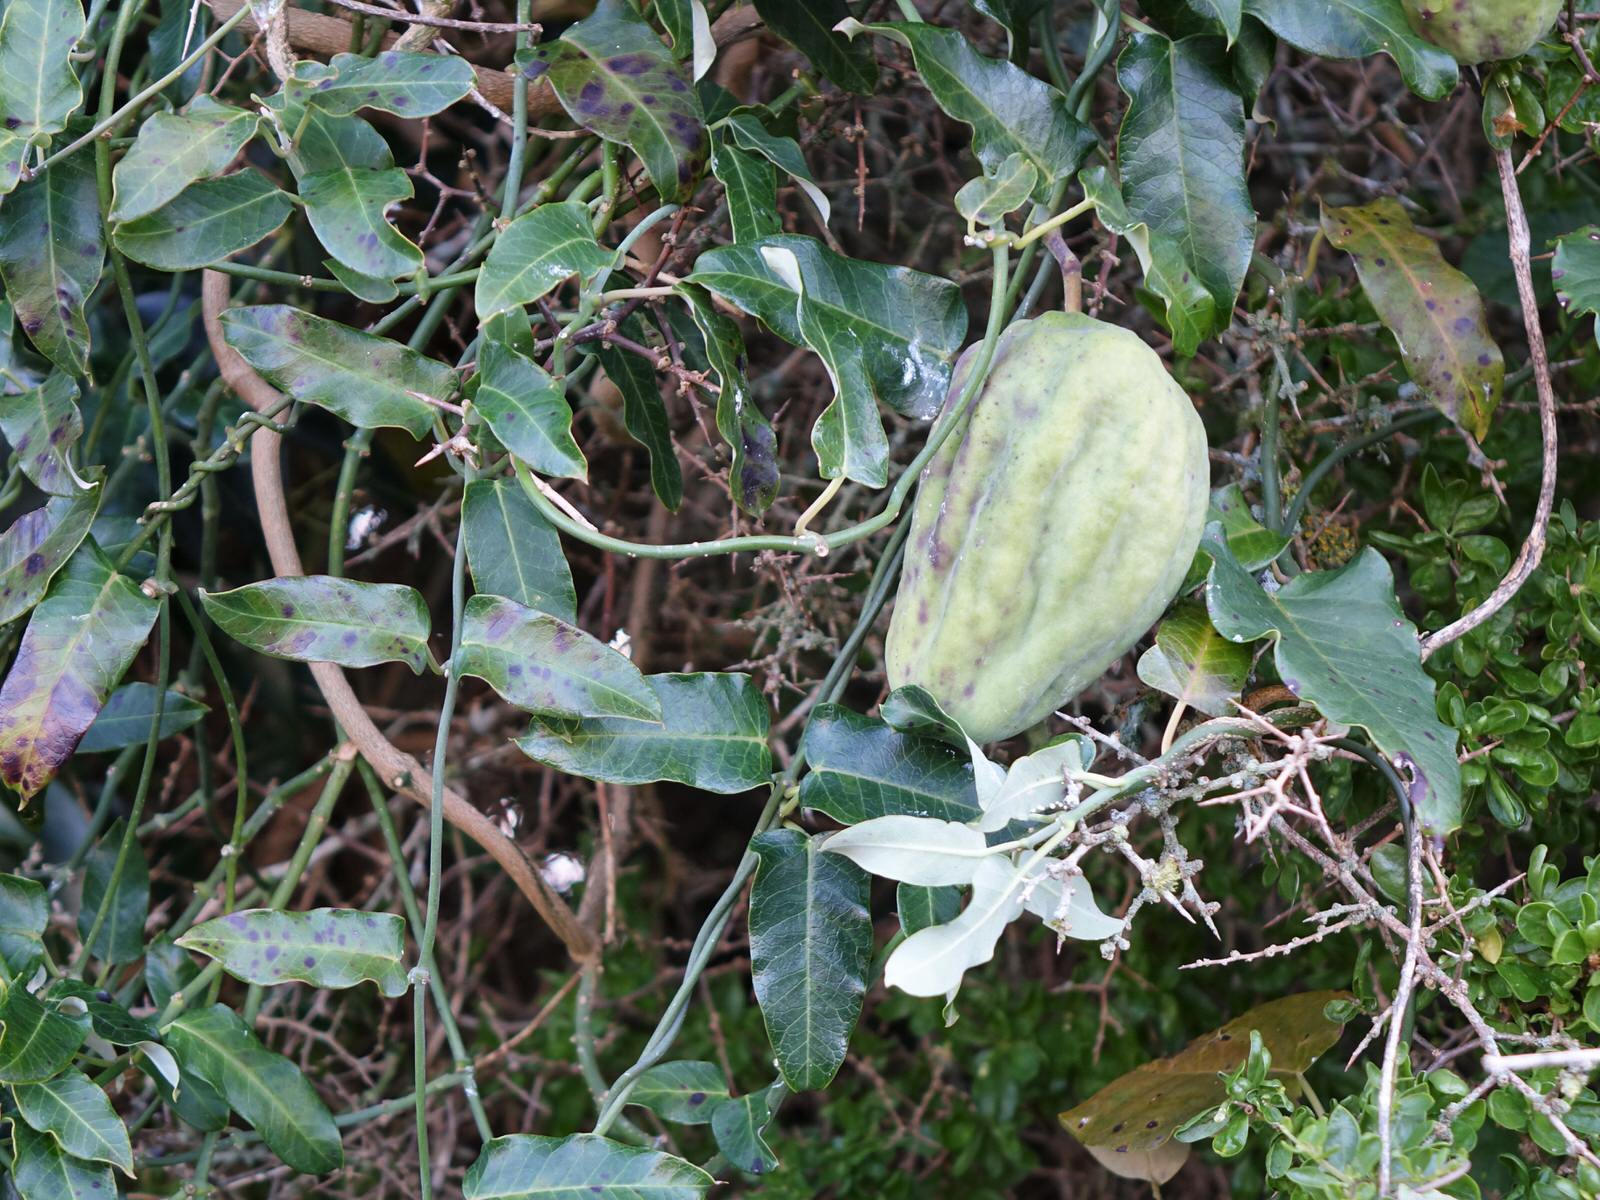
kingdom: Plantae
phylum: Tracheophyta
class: Magnoliopsida
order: Gentianales
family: Apocynaceae
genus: Araujia
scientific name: Araujia sericifera
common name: White bladderflower
